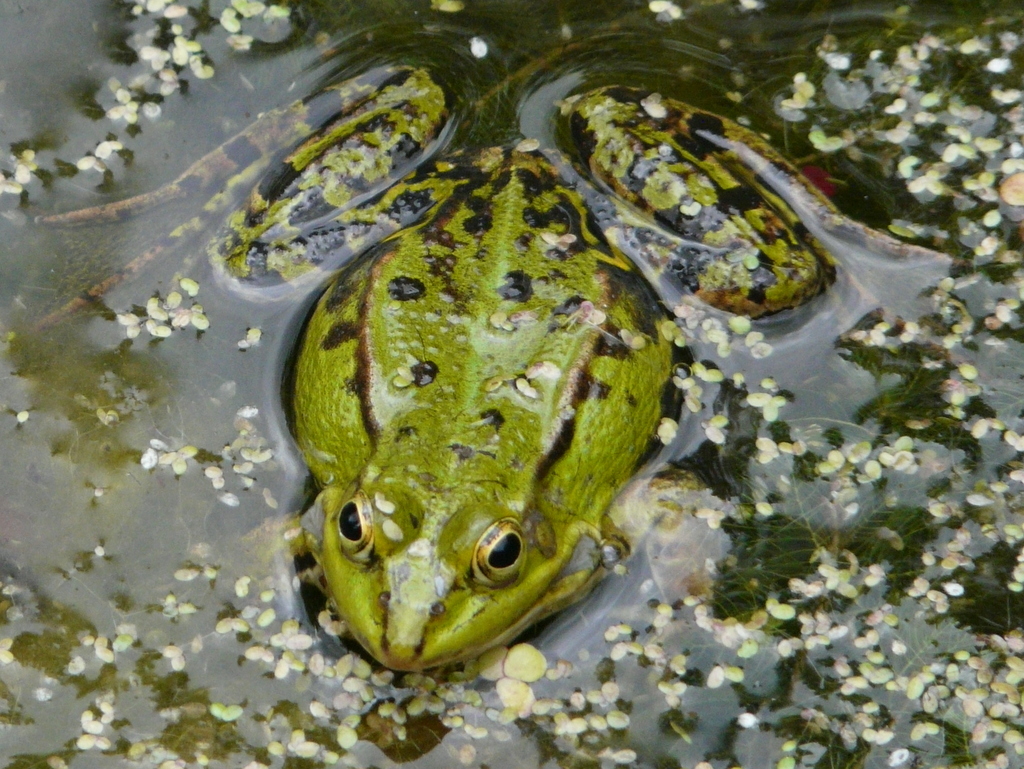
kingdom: Animalia
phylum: Chordata
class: Amphibia
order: Anura
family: Ranidae
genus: Pelophylax
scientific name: Pelophylax
